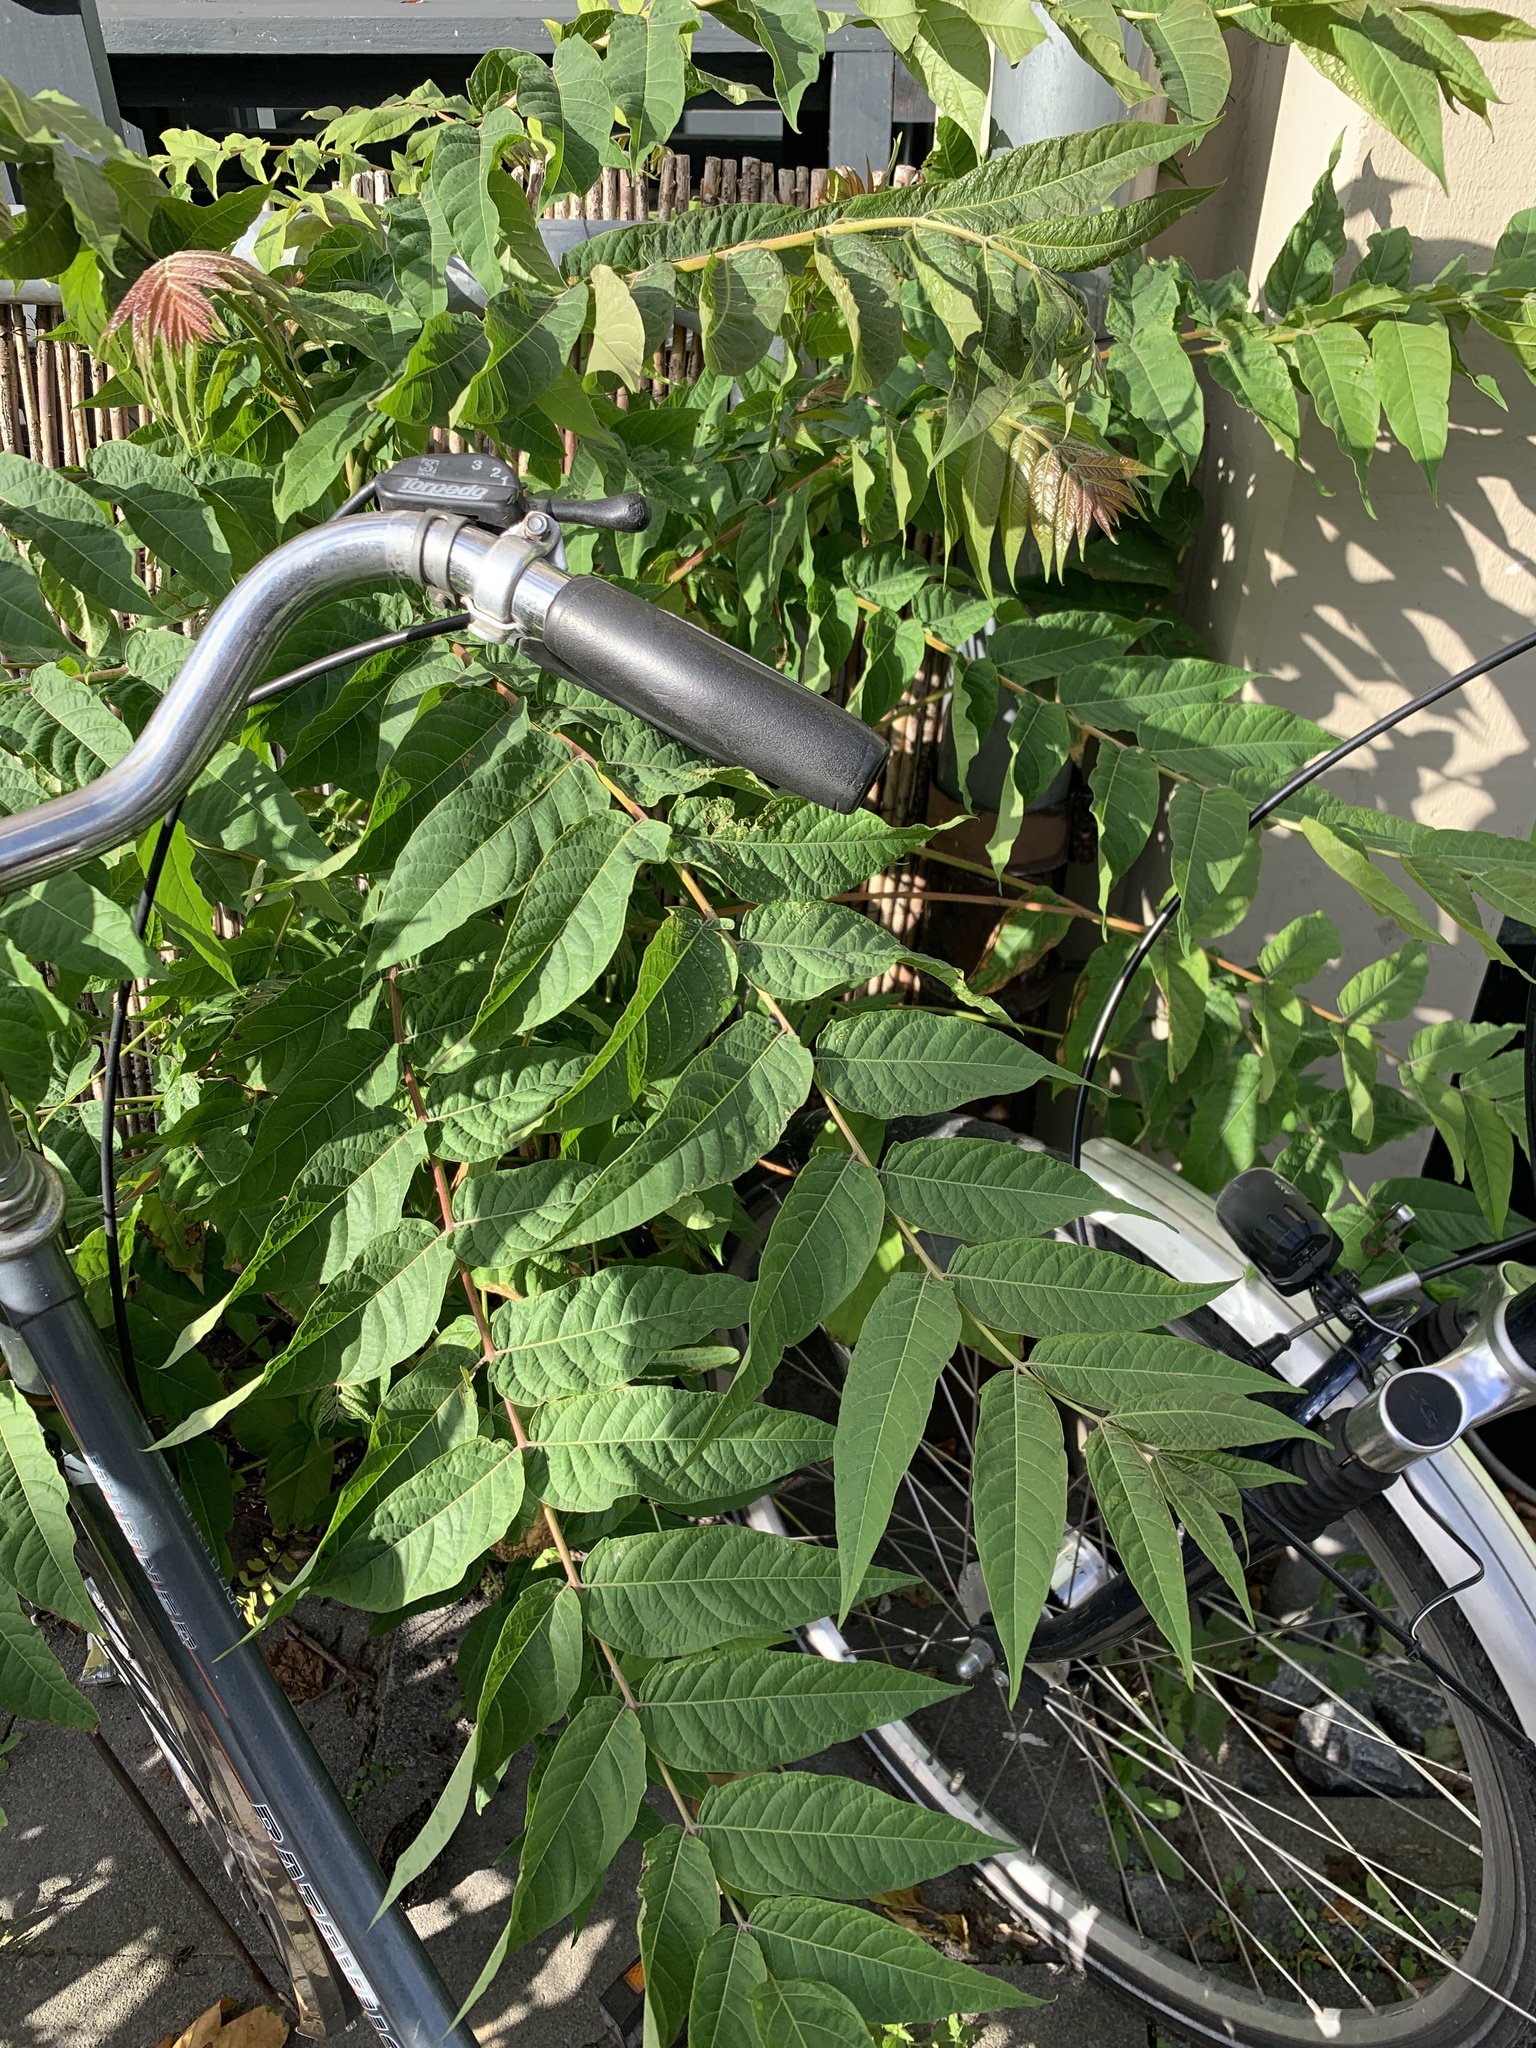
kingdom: Plantae
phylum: Tracheophyta
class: Magnoliopsida
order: Sapindales
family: Simaroubaceae
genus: Ailanthus
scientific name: Ailanthus altissima
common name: Tree-of-heaven
